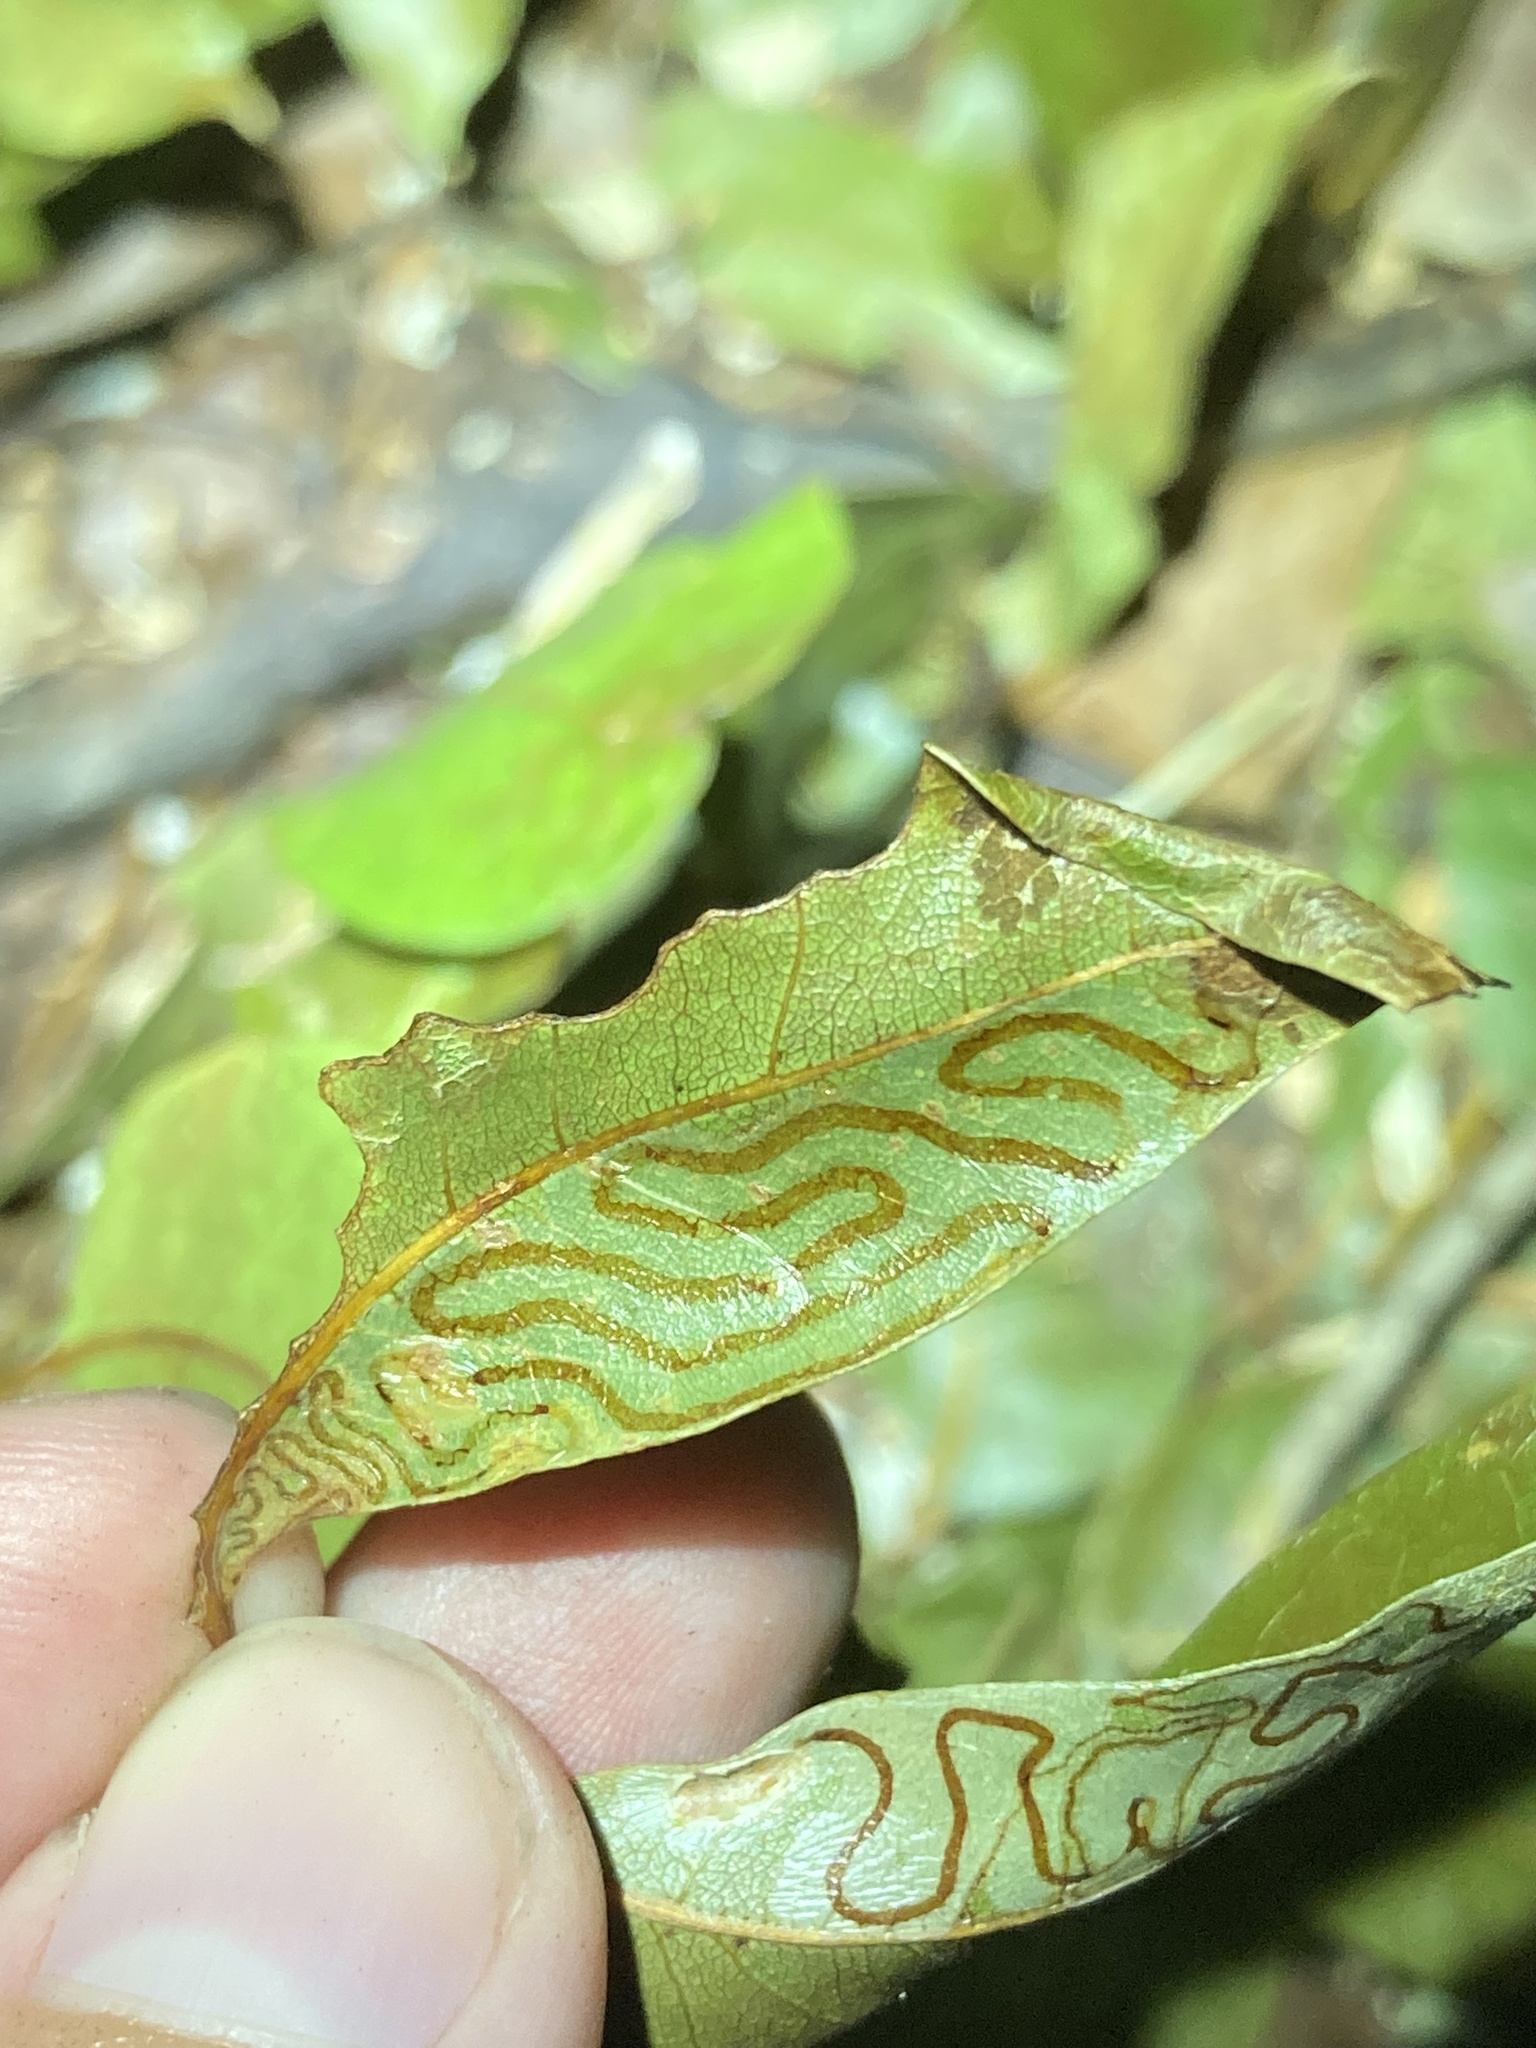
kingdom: Animalia
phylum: Arthropoda
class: Insecta
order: Lepidoptera
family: Gracillariidae
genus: Phyllocnistis
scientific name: Phyllocnistis meliacella
